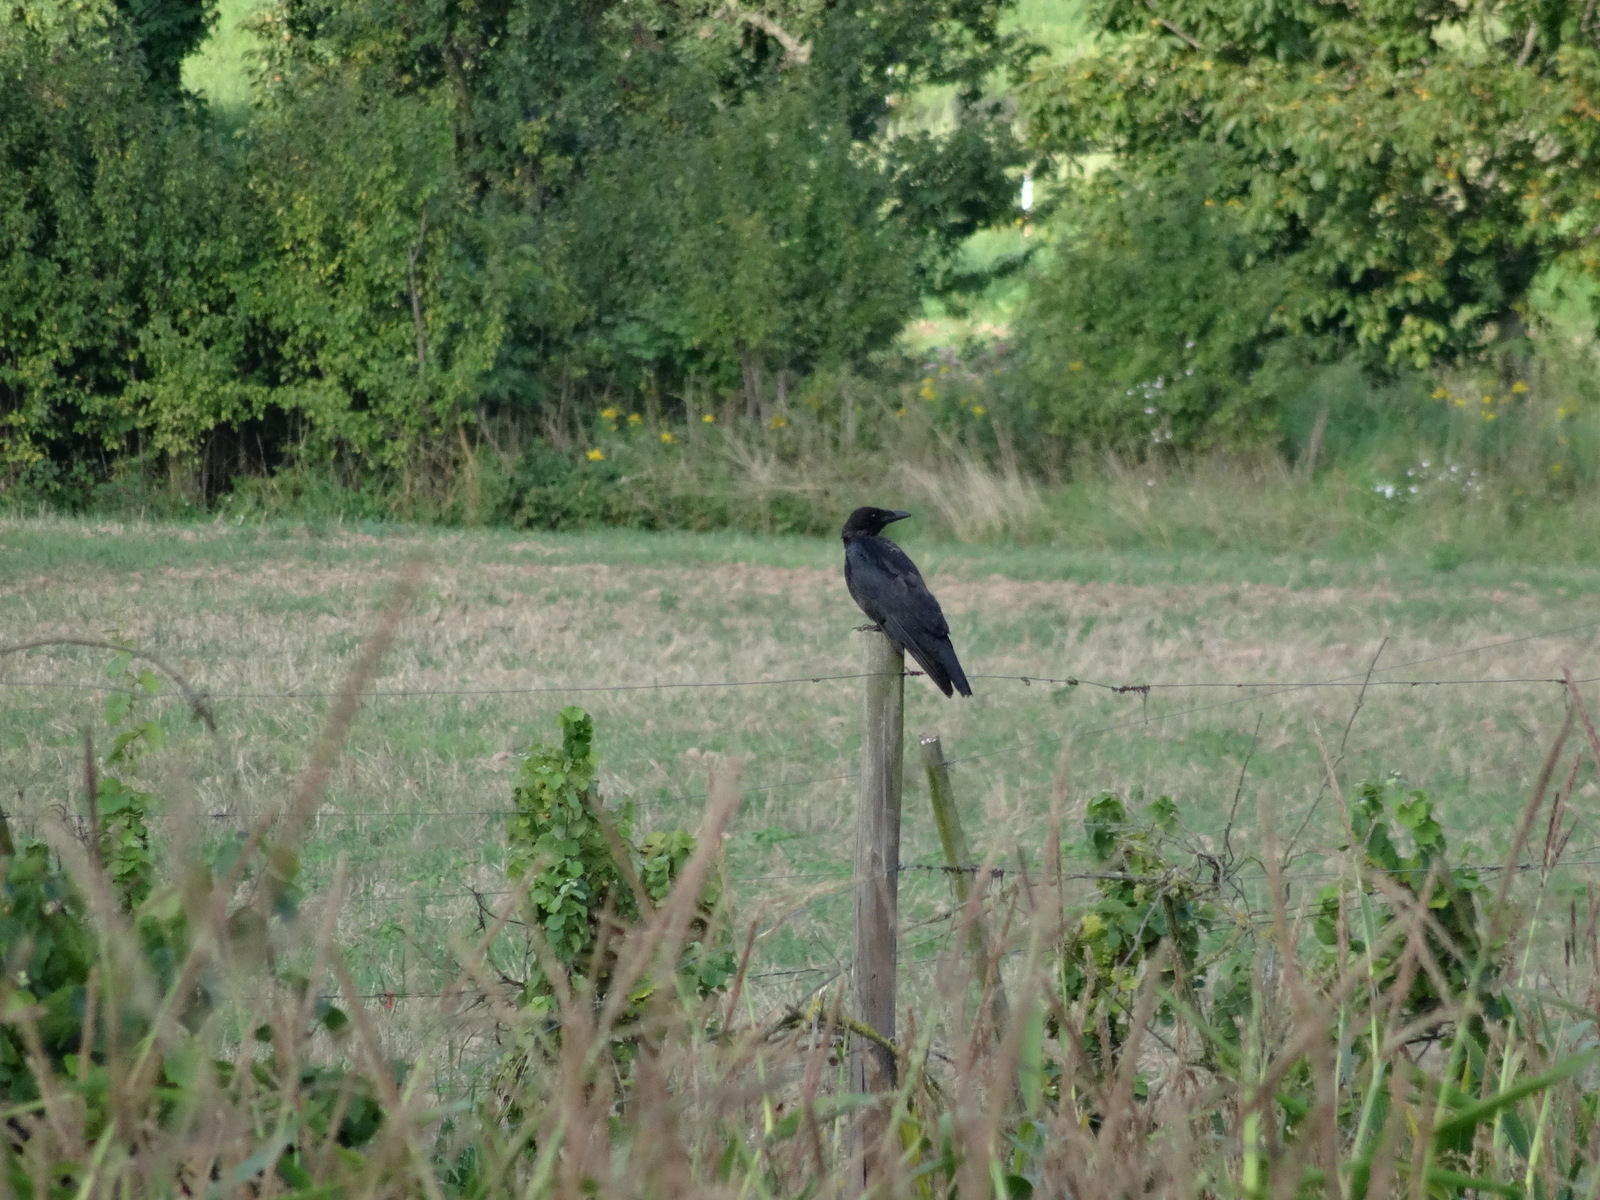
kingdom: Animalia
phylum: Chordata
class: Aves
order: Passeriformes
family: Corvidae
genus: Corvus
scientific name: Corvus corone
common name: Carrion crow
